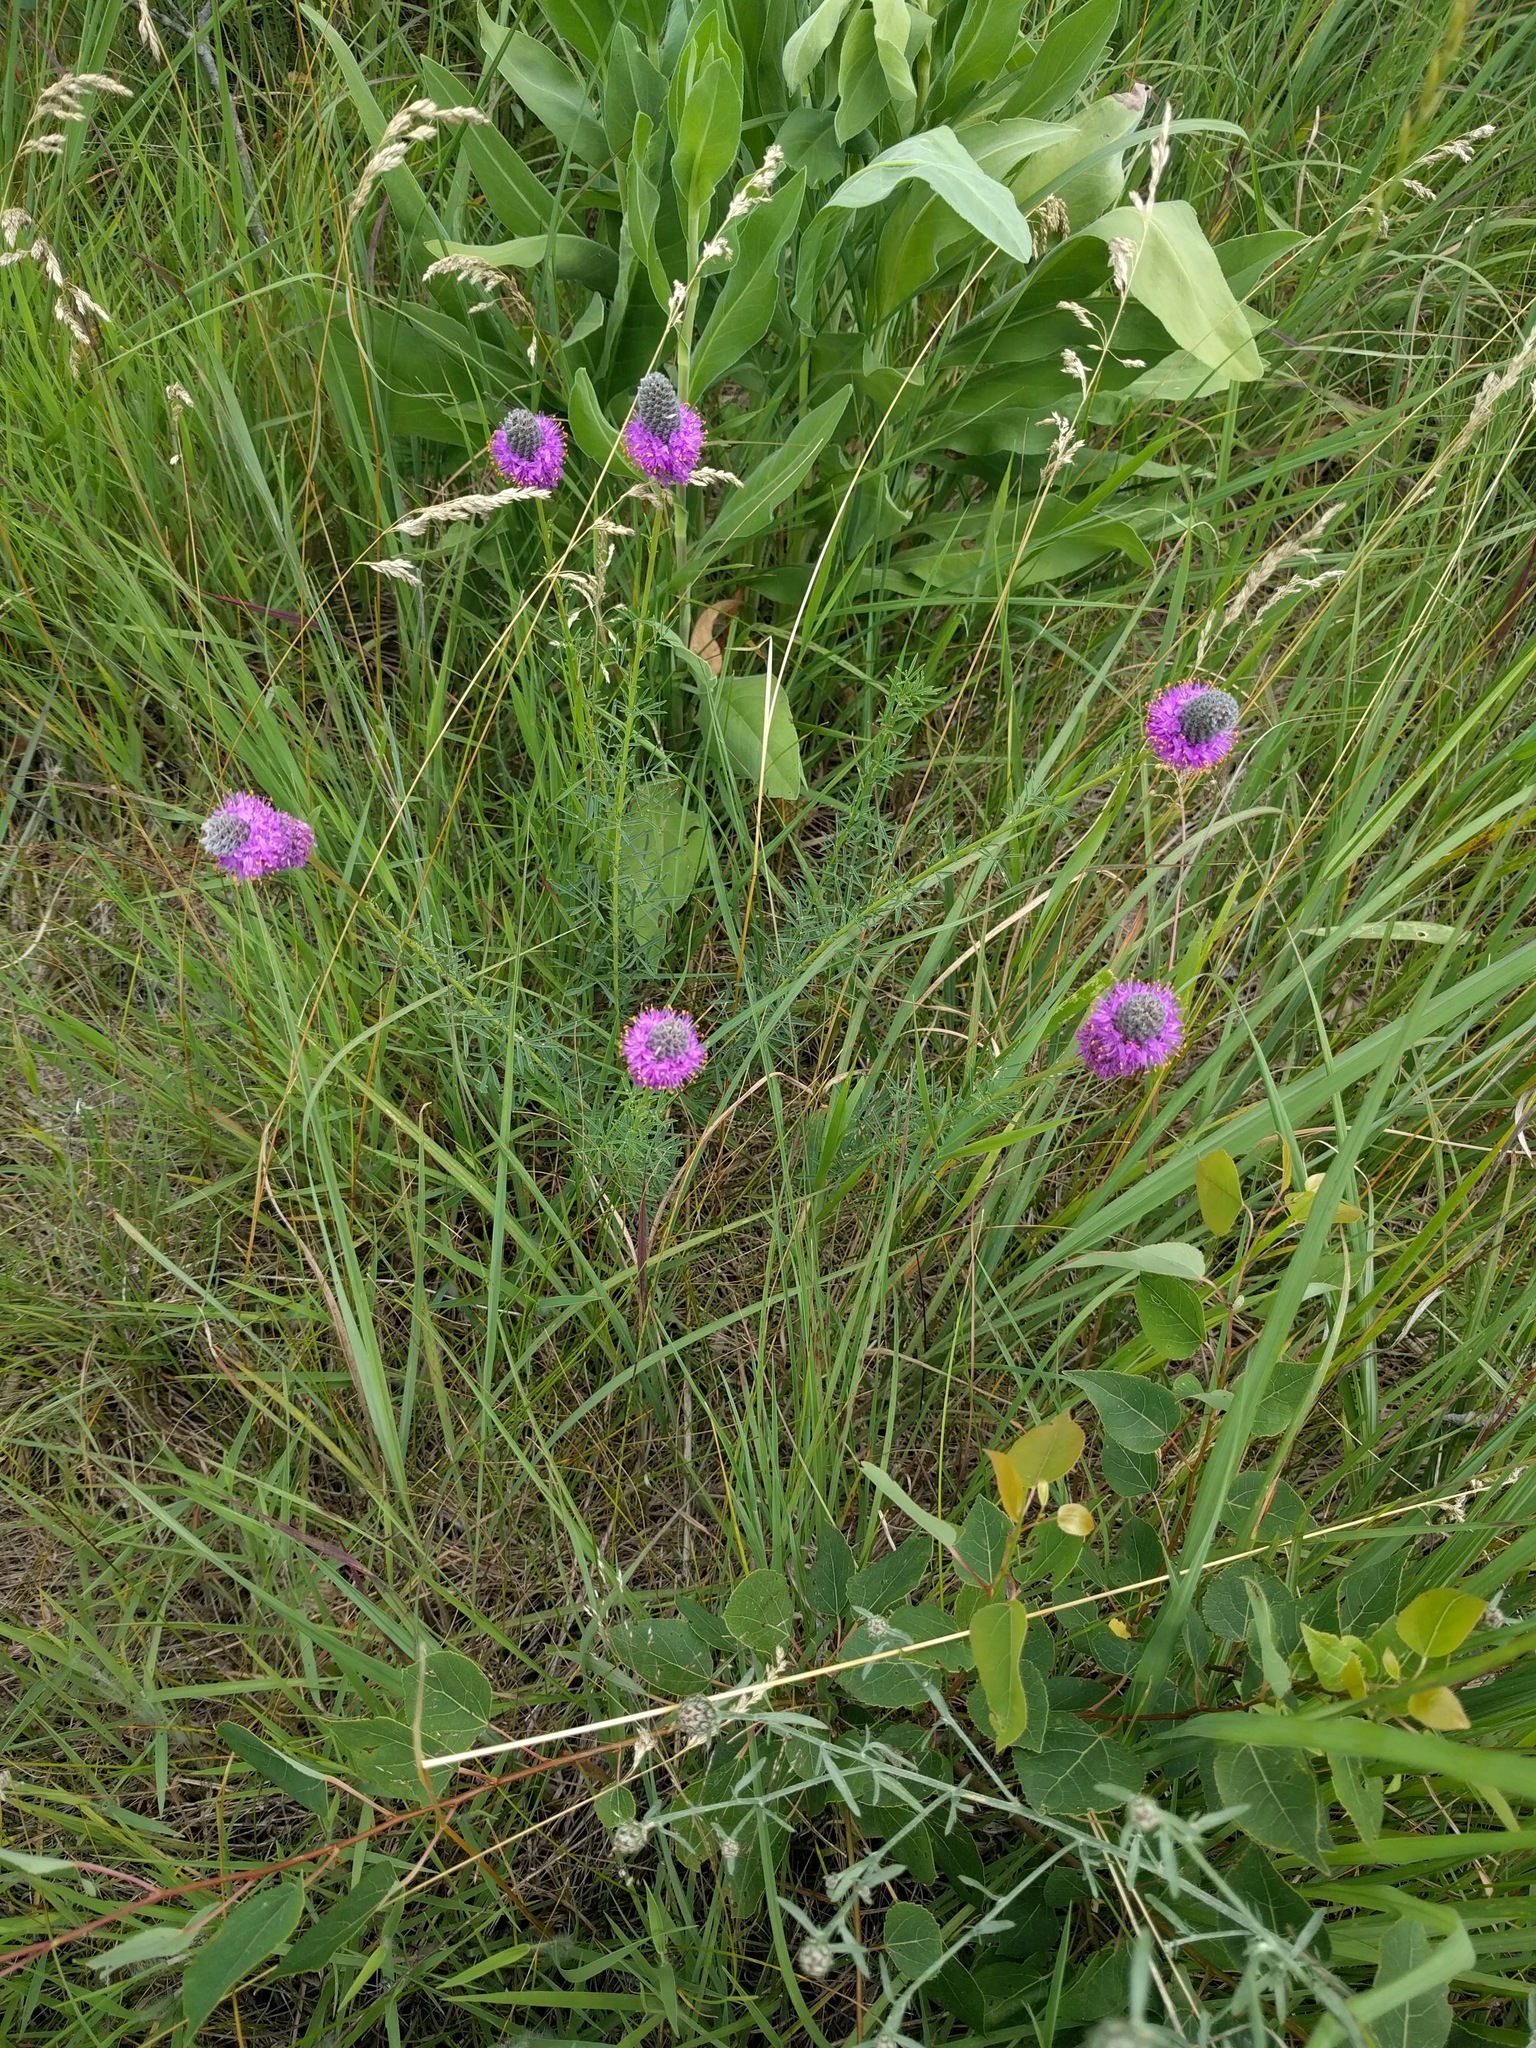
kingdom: Plantae
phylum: Tracheophyta
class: Magnoliopsida
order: Fabales
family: Fabaceae
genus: Dalea
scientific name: Dalea purpurea
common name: Purple prairie-clover
